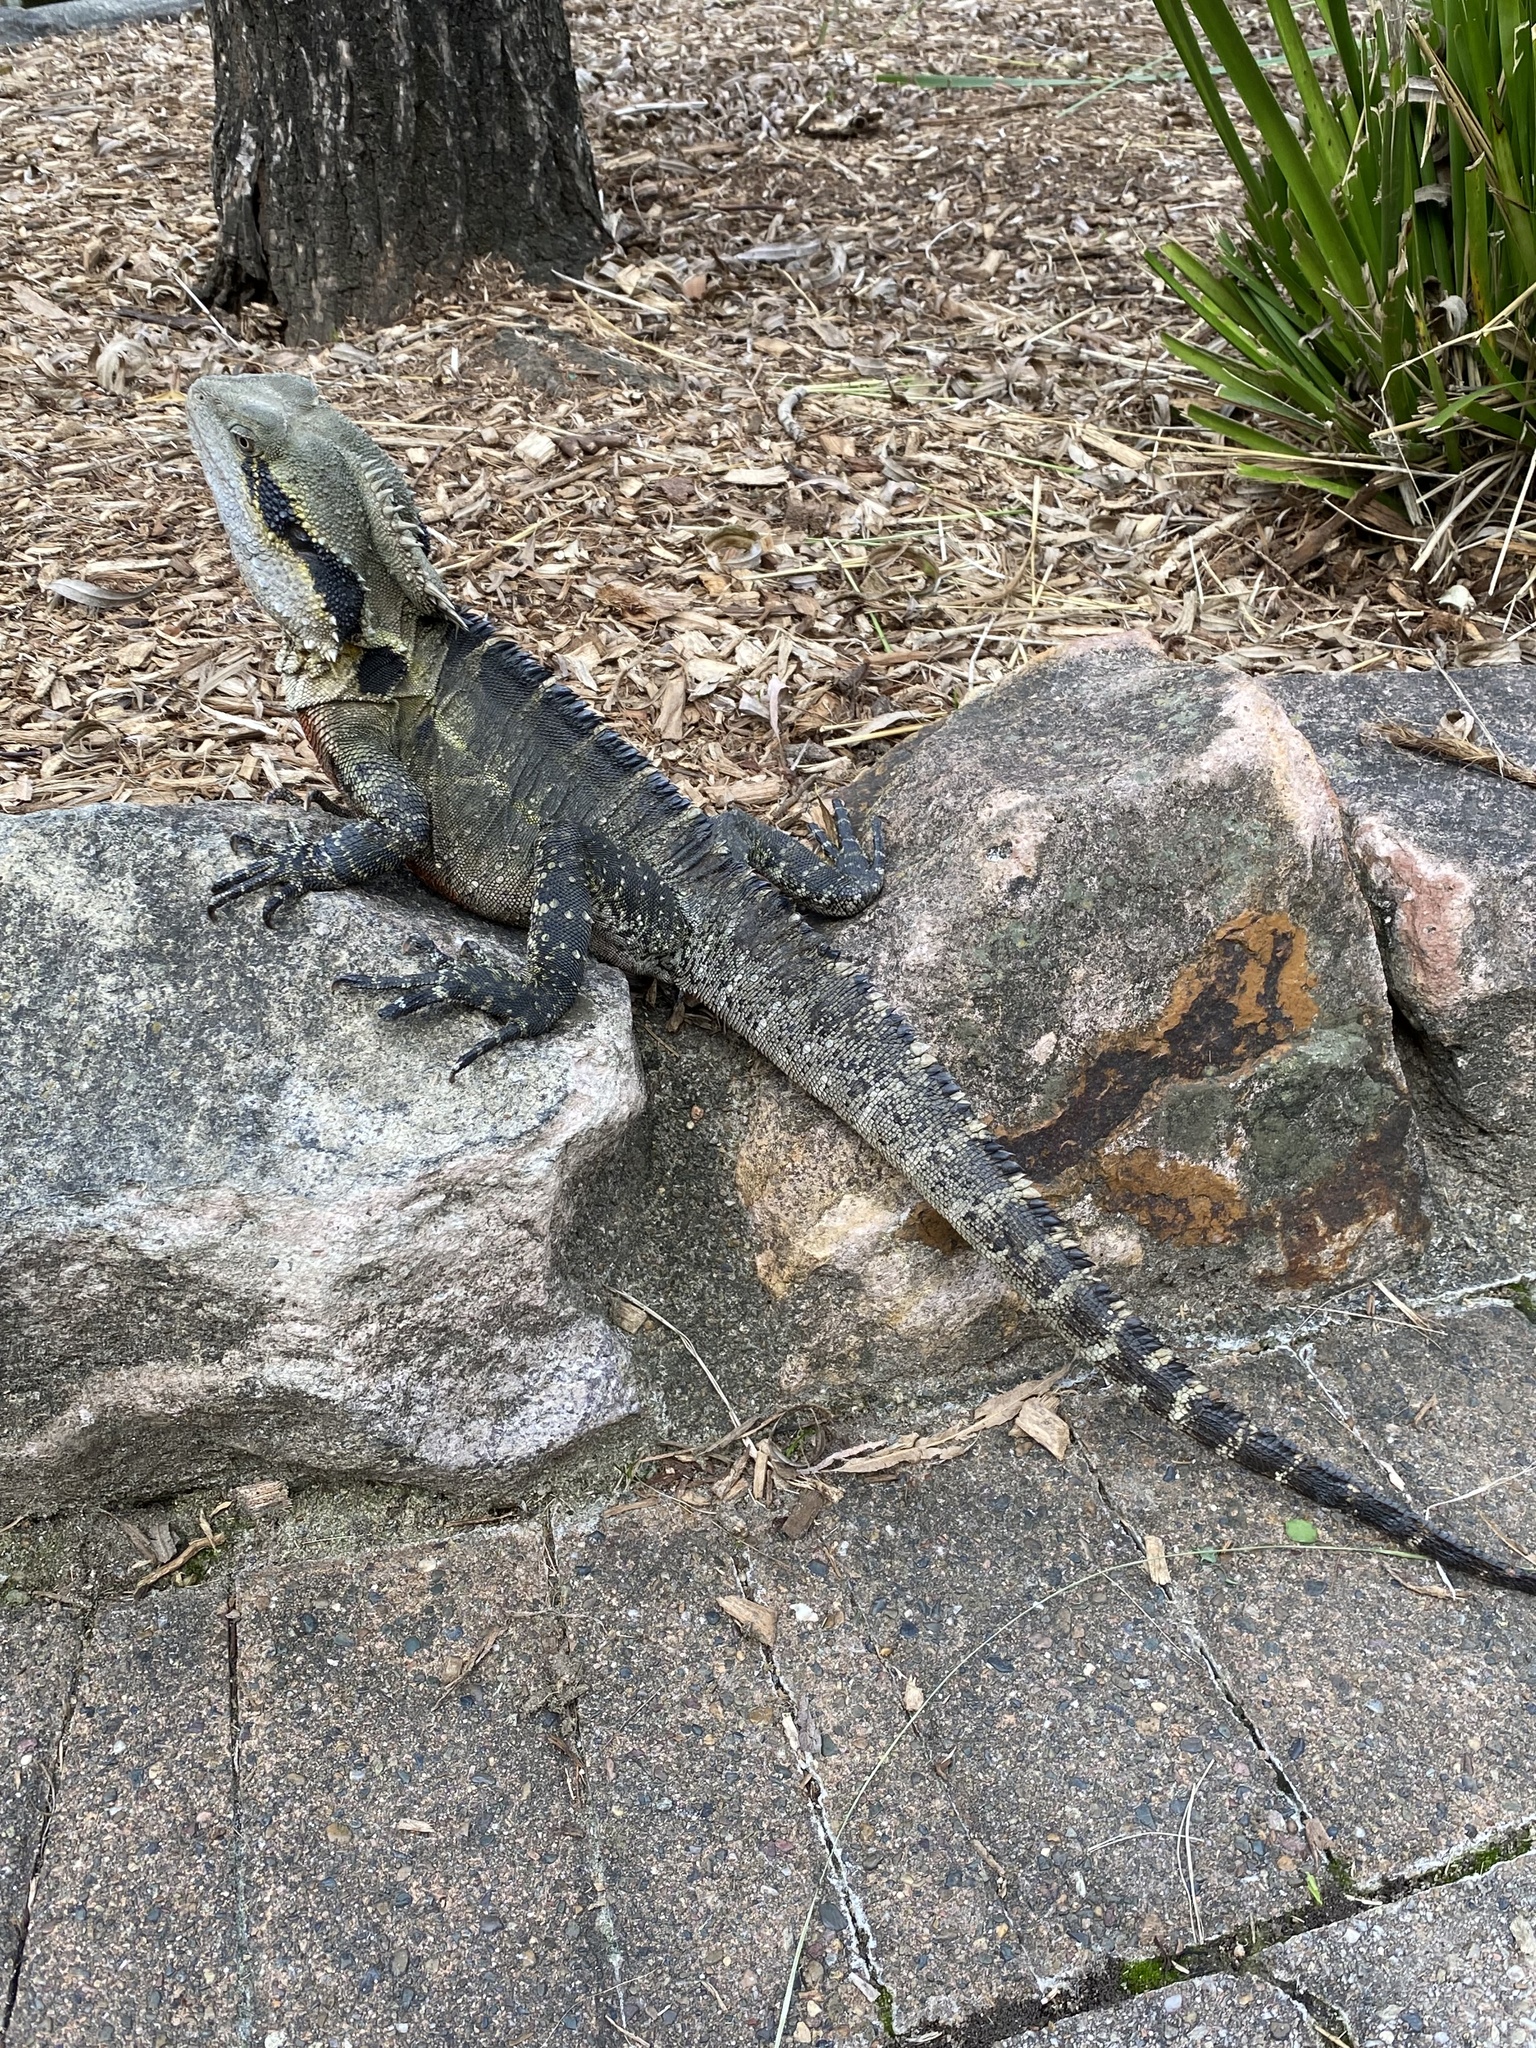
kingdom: Animalia
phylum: Chordata
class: Squamata
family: Agamidae
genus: Intellagama
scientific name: Intellagama lesueurii
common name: Eastern water dragon
